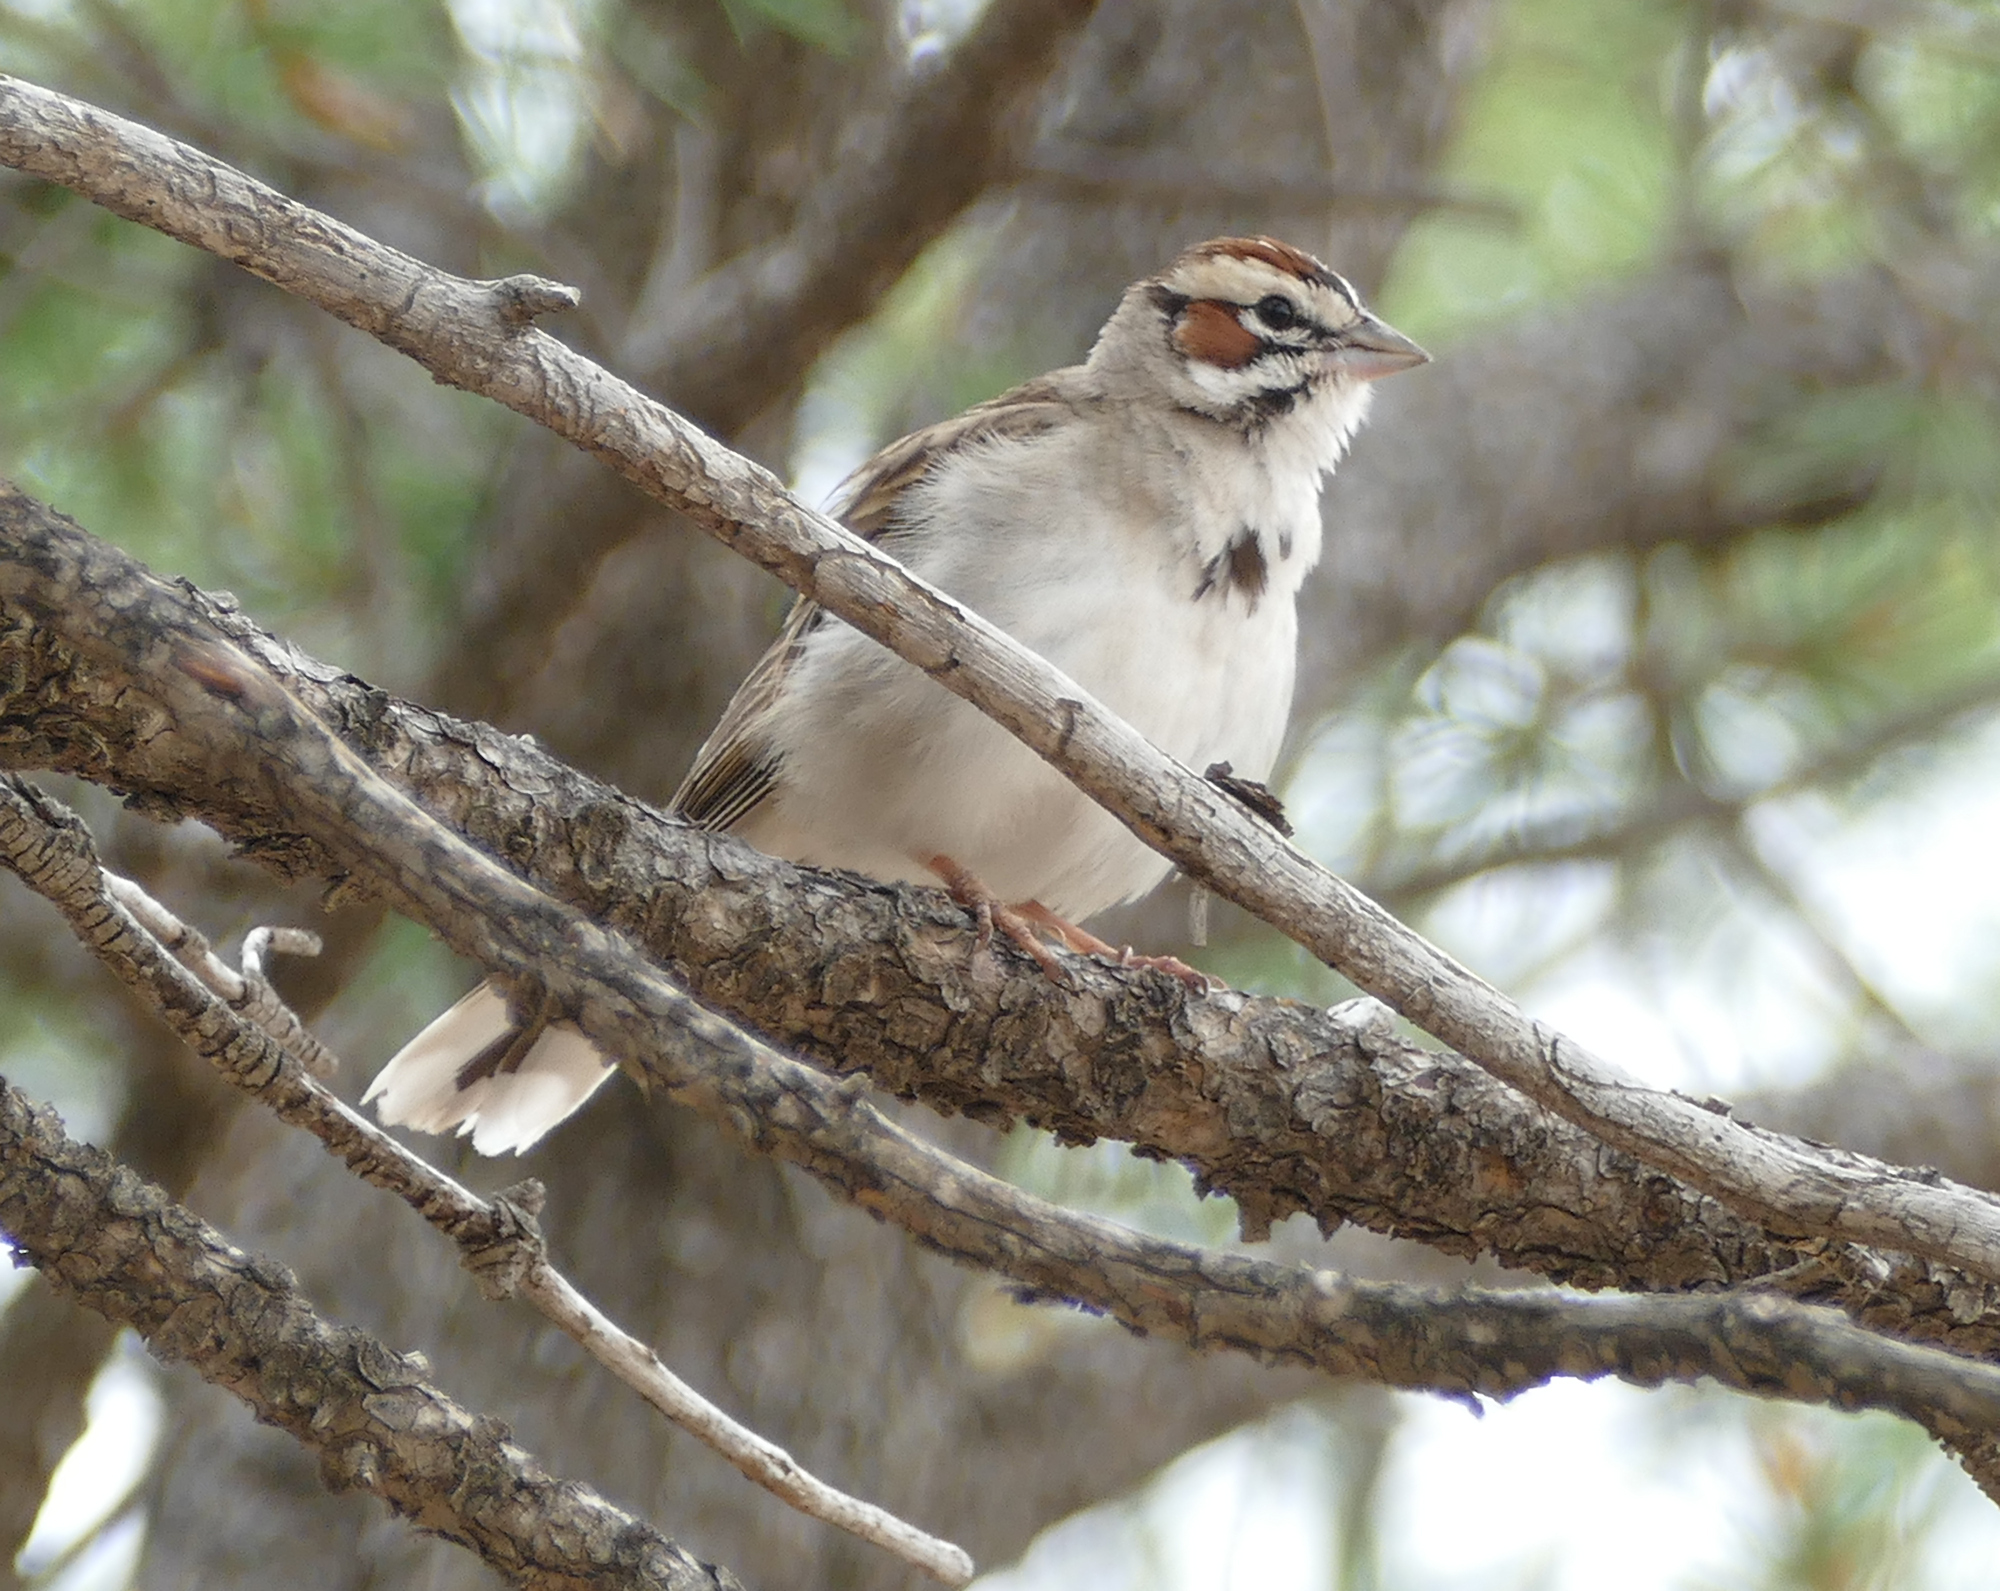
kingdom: Animalia
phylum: Chordata
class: Aves
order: Passeriformes
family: Passerellidae
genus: Chondestes
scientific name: Chondestes grammacus
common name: Lark sparrow
